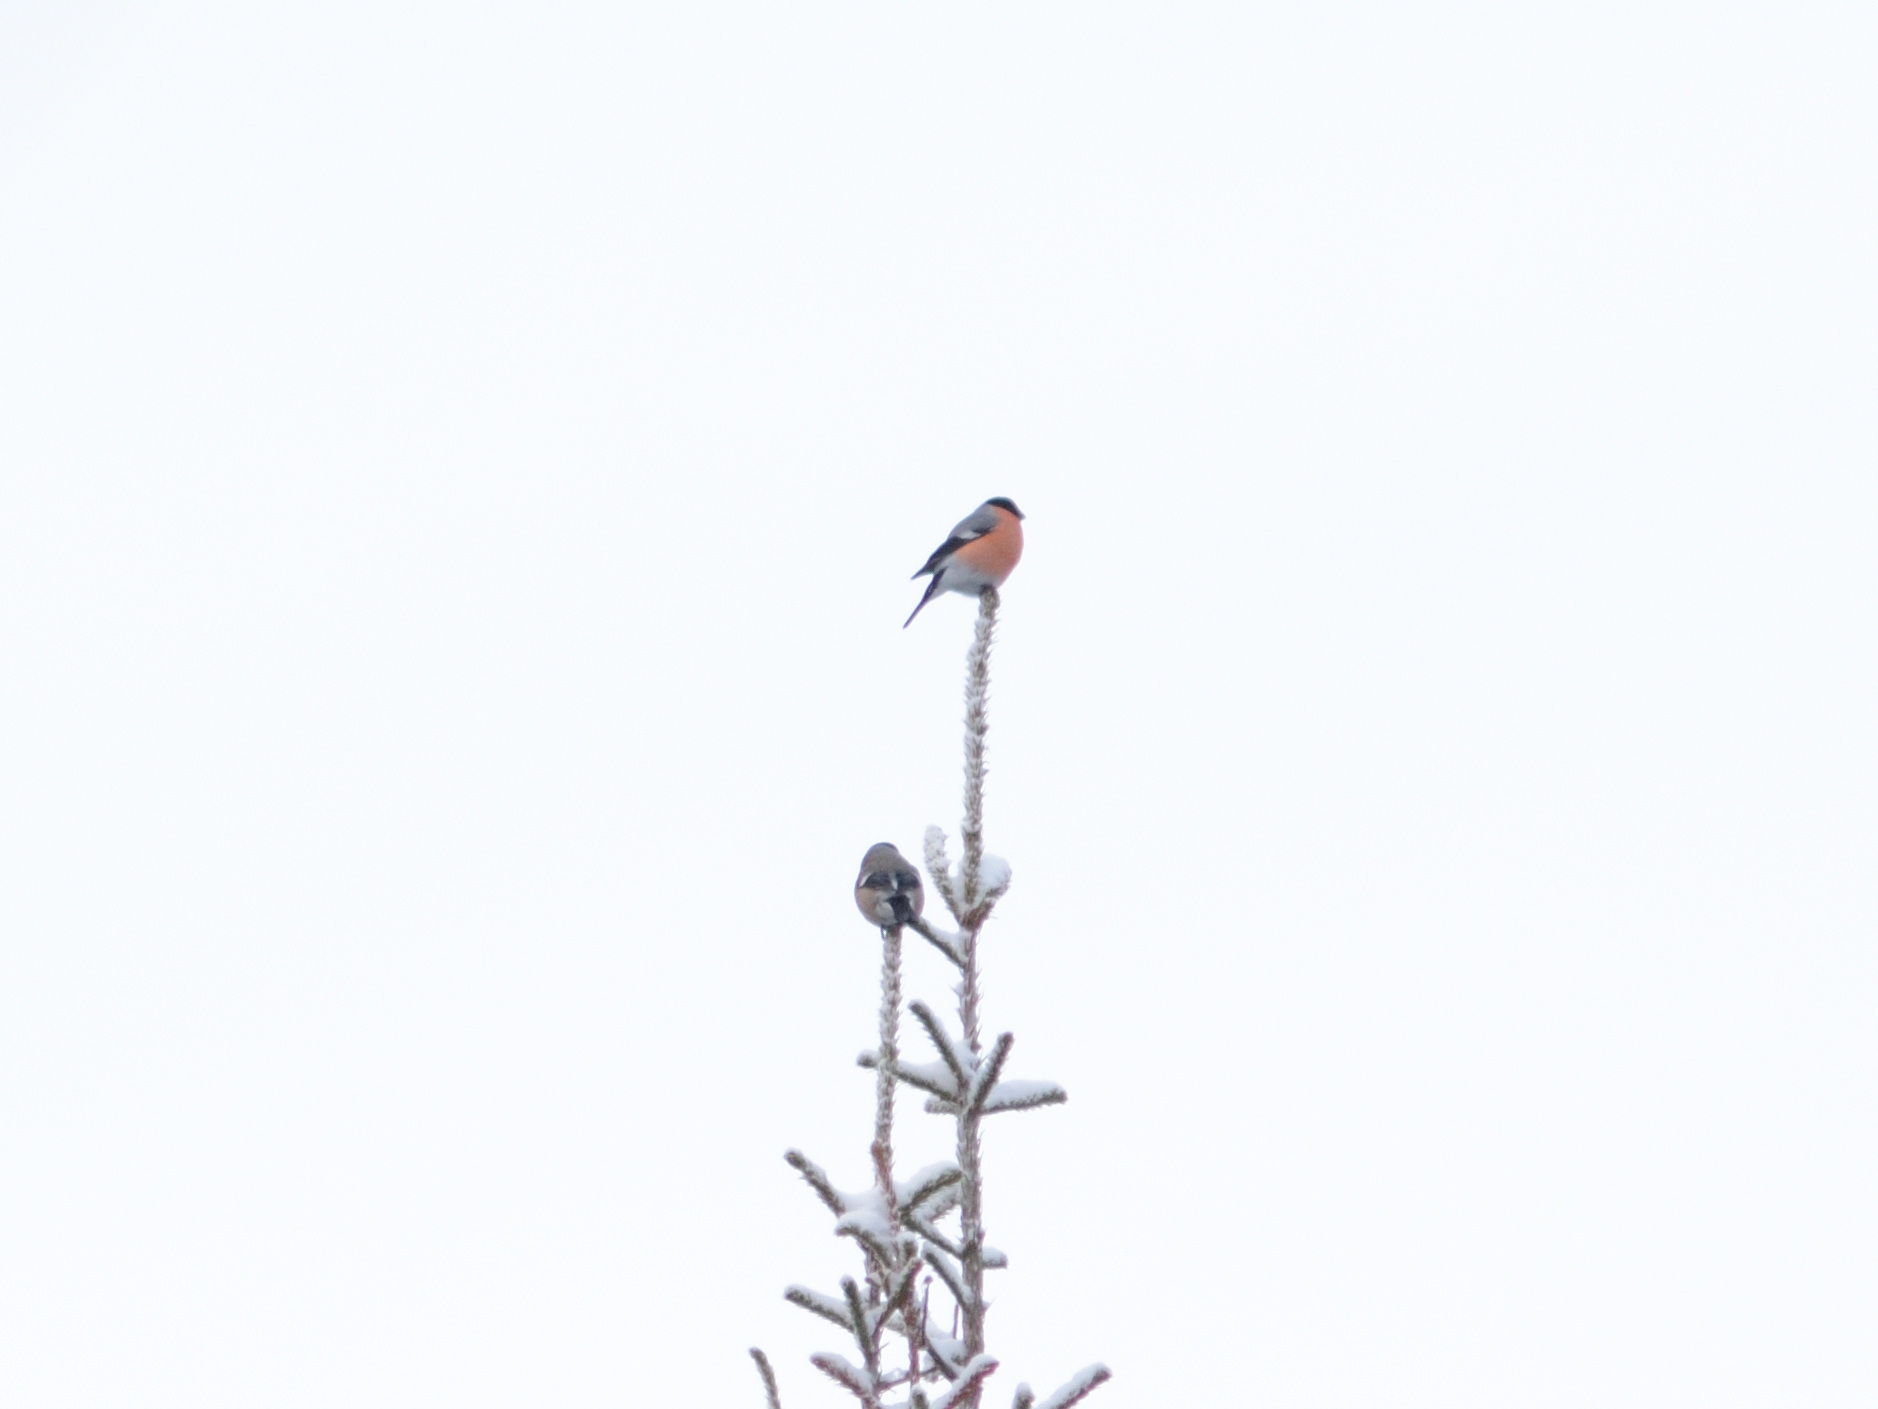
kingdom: Animalia
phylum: Chordata
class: Aves
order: Passeriformes
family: Fringillidae
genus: Pyrrhula
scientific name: Pyrrhula pyrrhula
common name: Eurasian bullfinch
